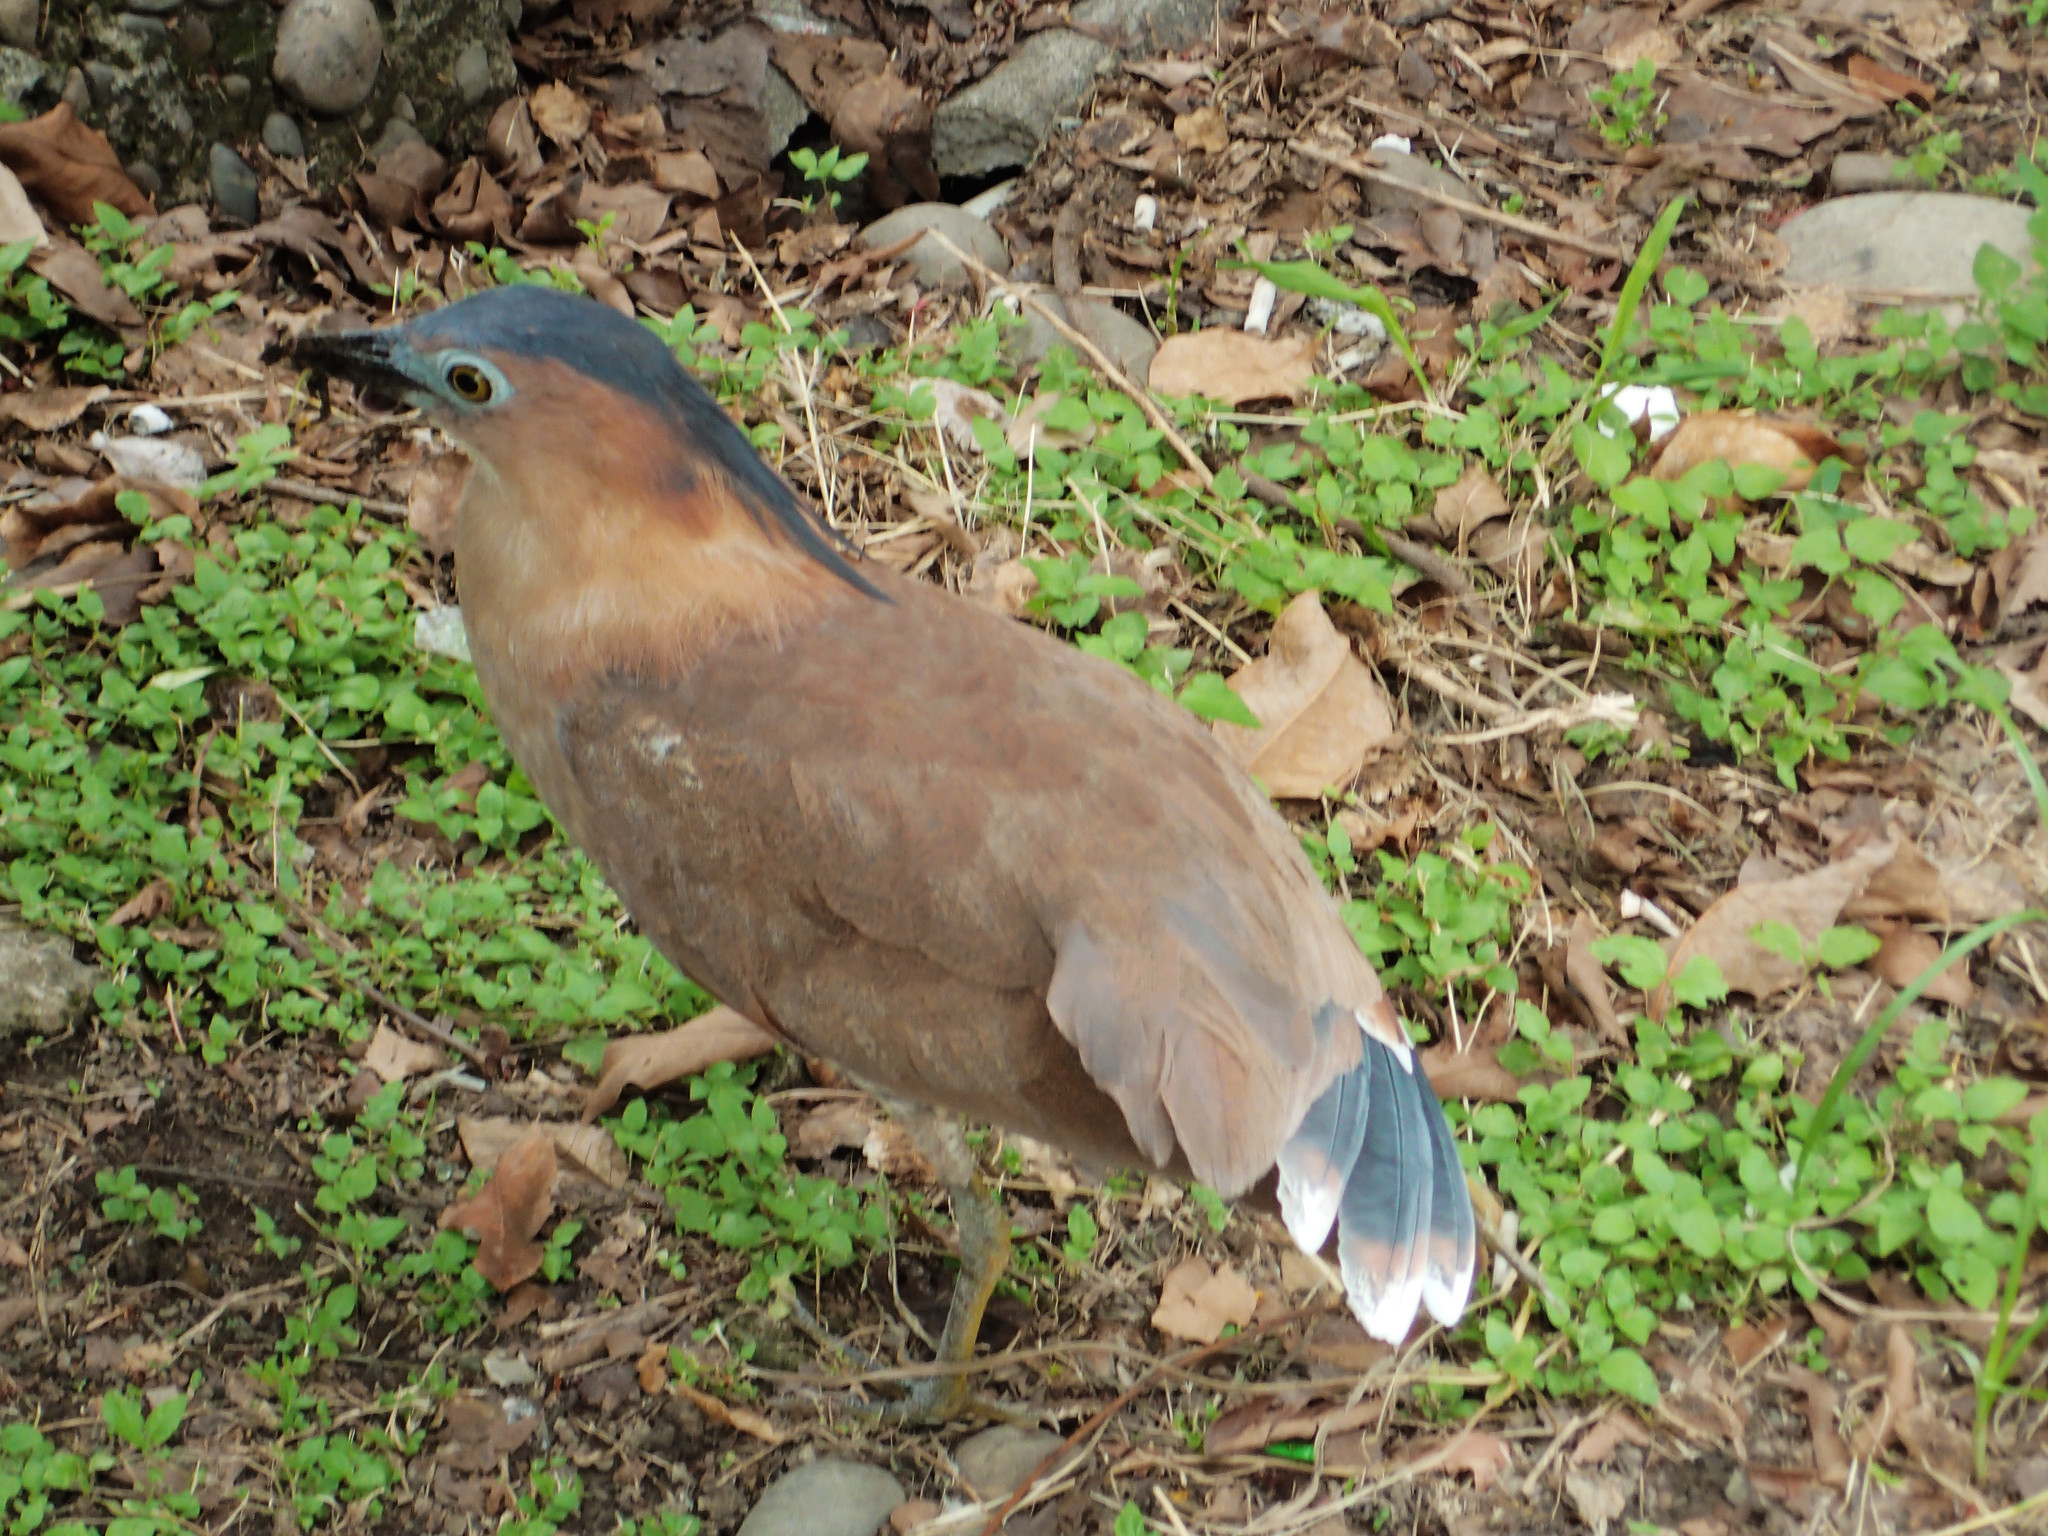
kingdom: Animalia
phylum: Chordata
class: Aves
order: Pelecaniformes
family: Ardeidae
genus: Gorsachius
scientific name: Gorsachius melanolophus
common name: Malayan night heron
